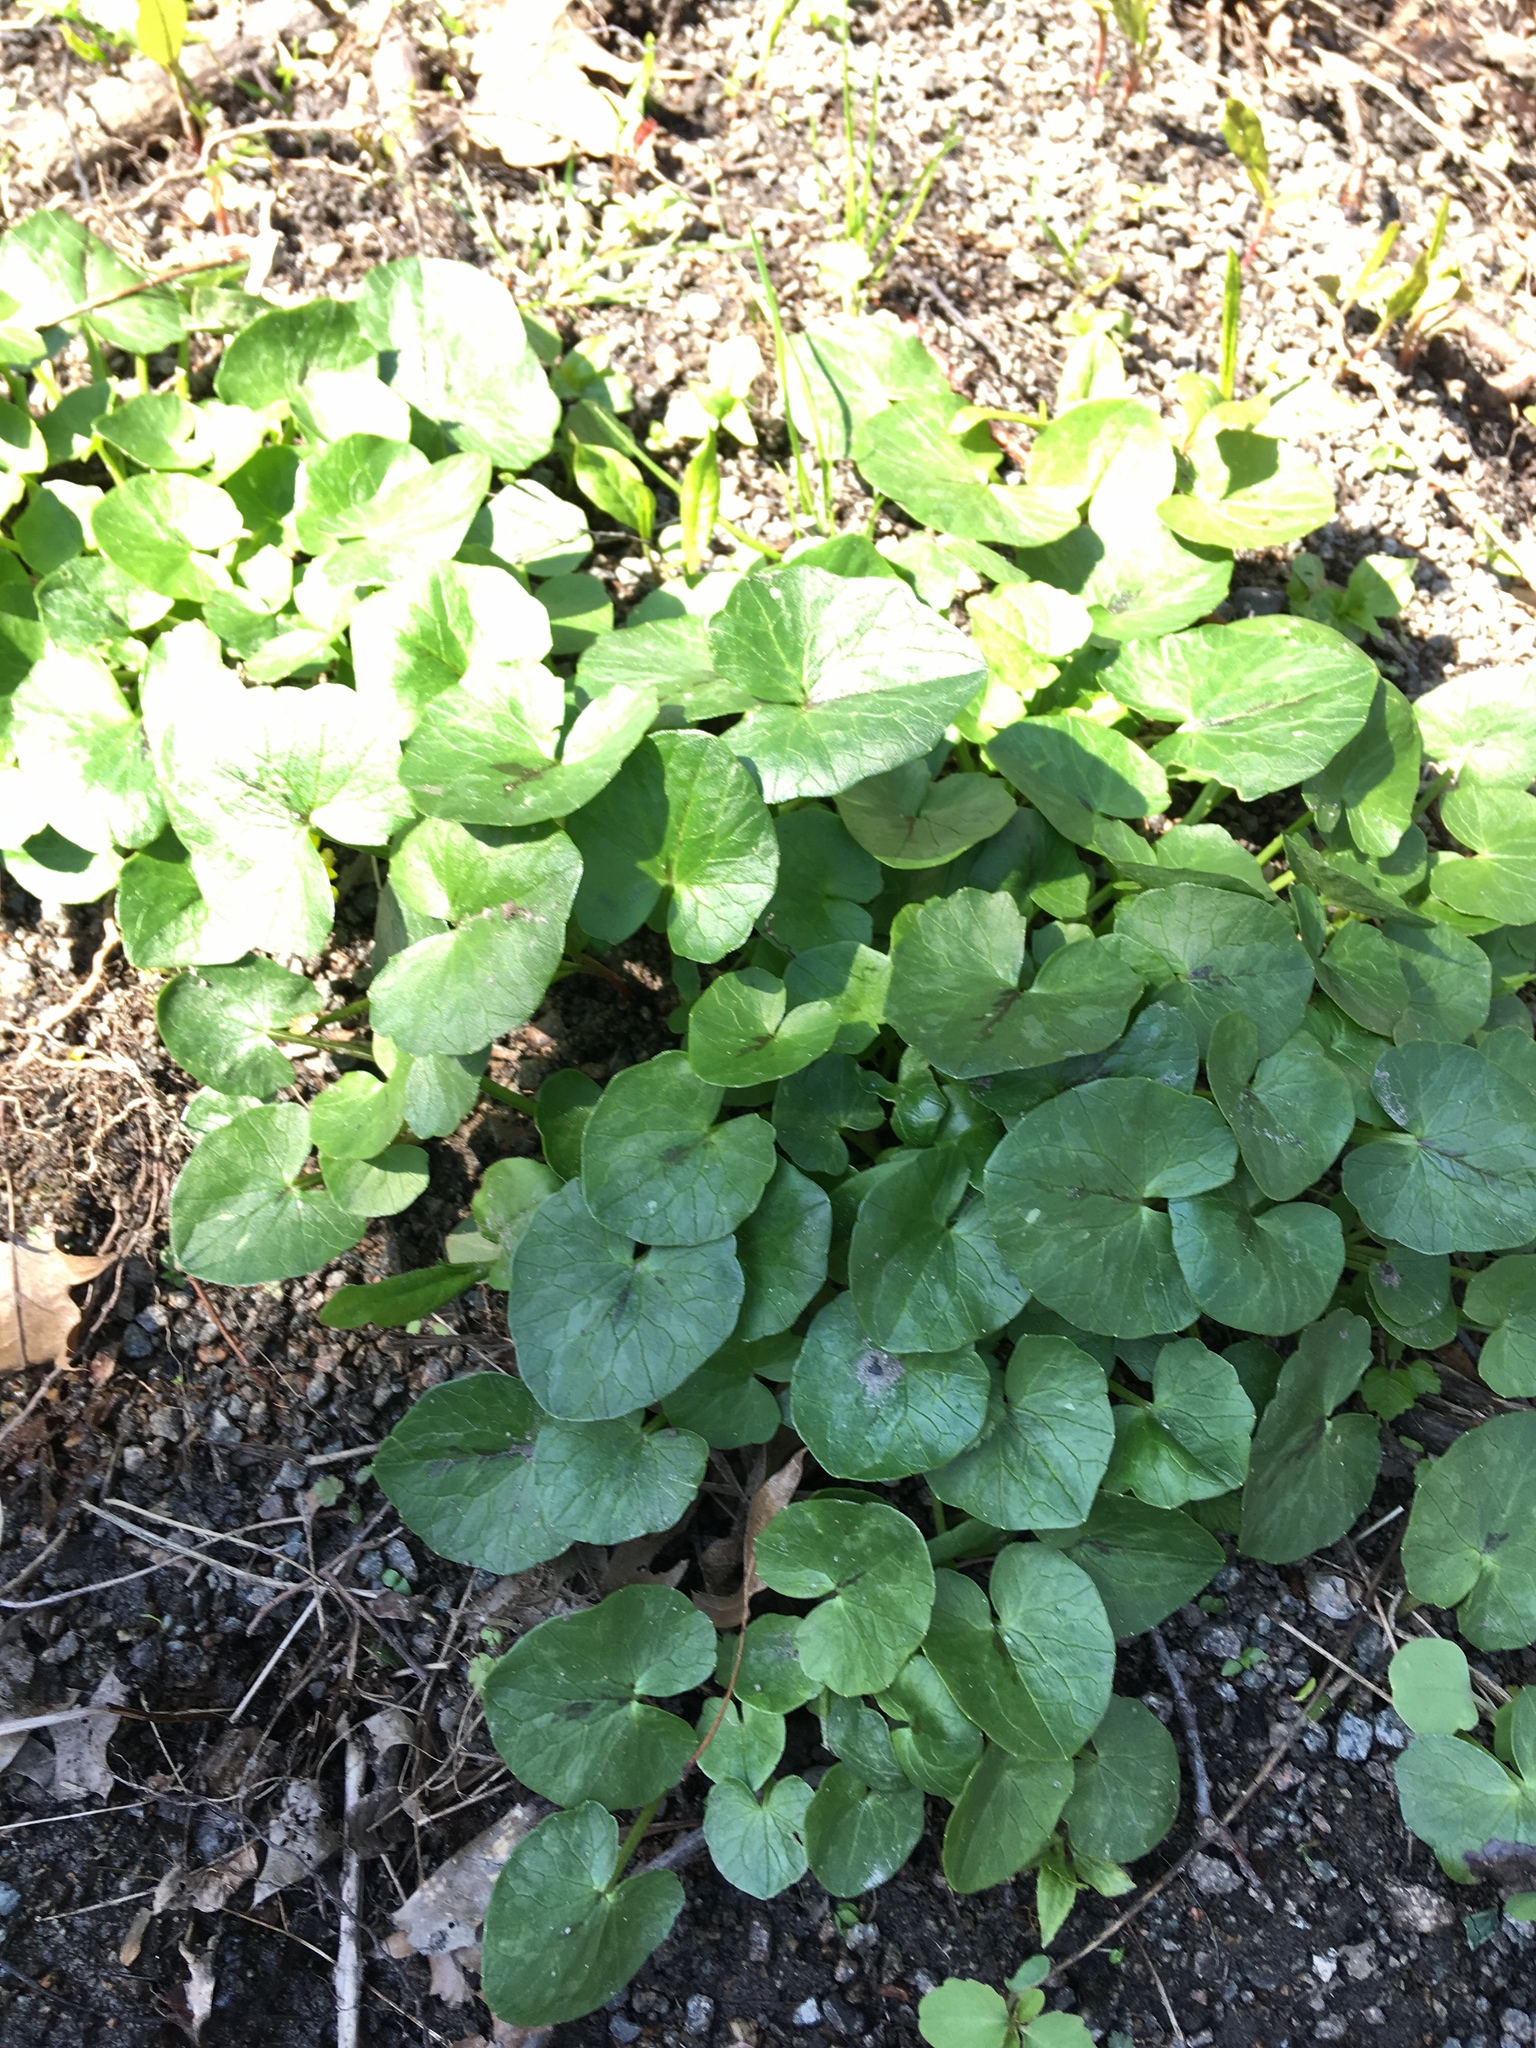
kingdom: Plantae
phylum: Tracheophyta
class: Magnoliopsida
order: Ranunculales
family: Ranunculaceae
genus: Ficaria
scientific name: Ficaria verna
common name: Lesser celandine
